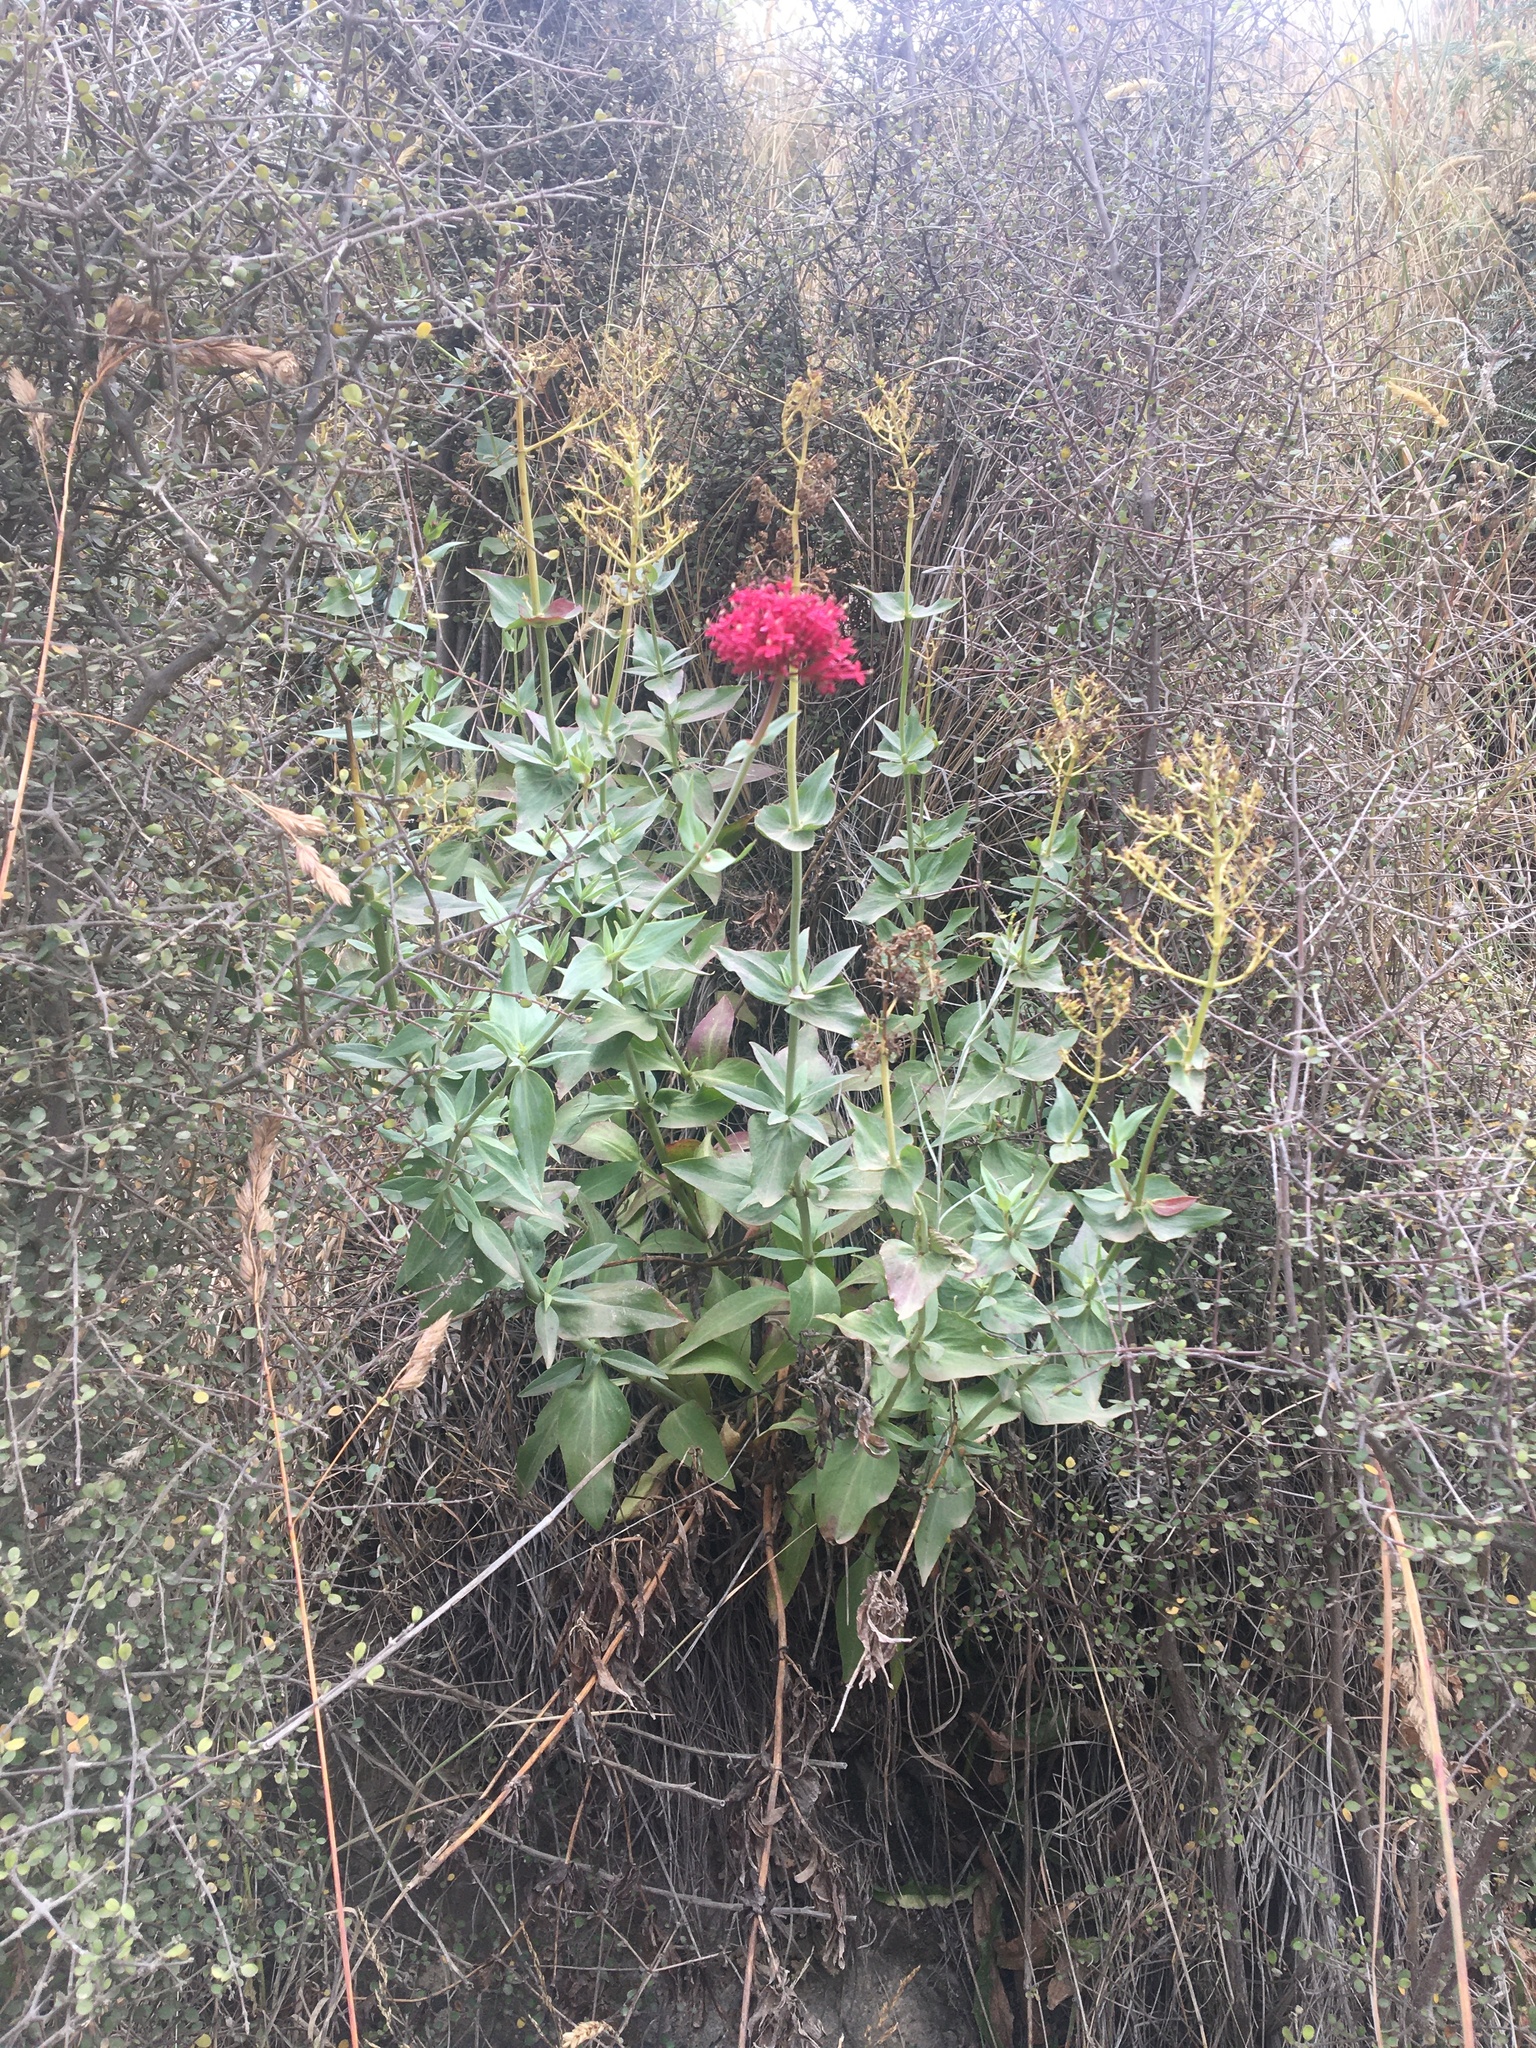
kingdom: Plantae
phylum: Tracheophyta
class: Magnoliopsida
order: Dipsacales
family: Caprifoliaceae
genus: Centranthus
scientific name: Centranthus ruber
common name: Red valerian
